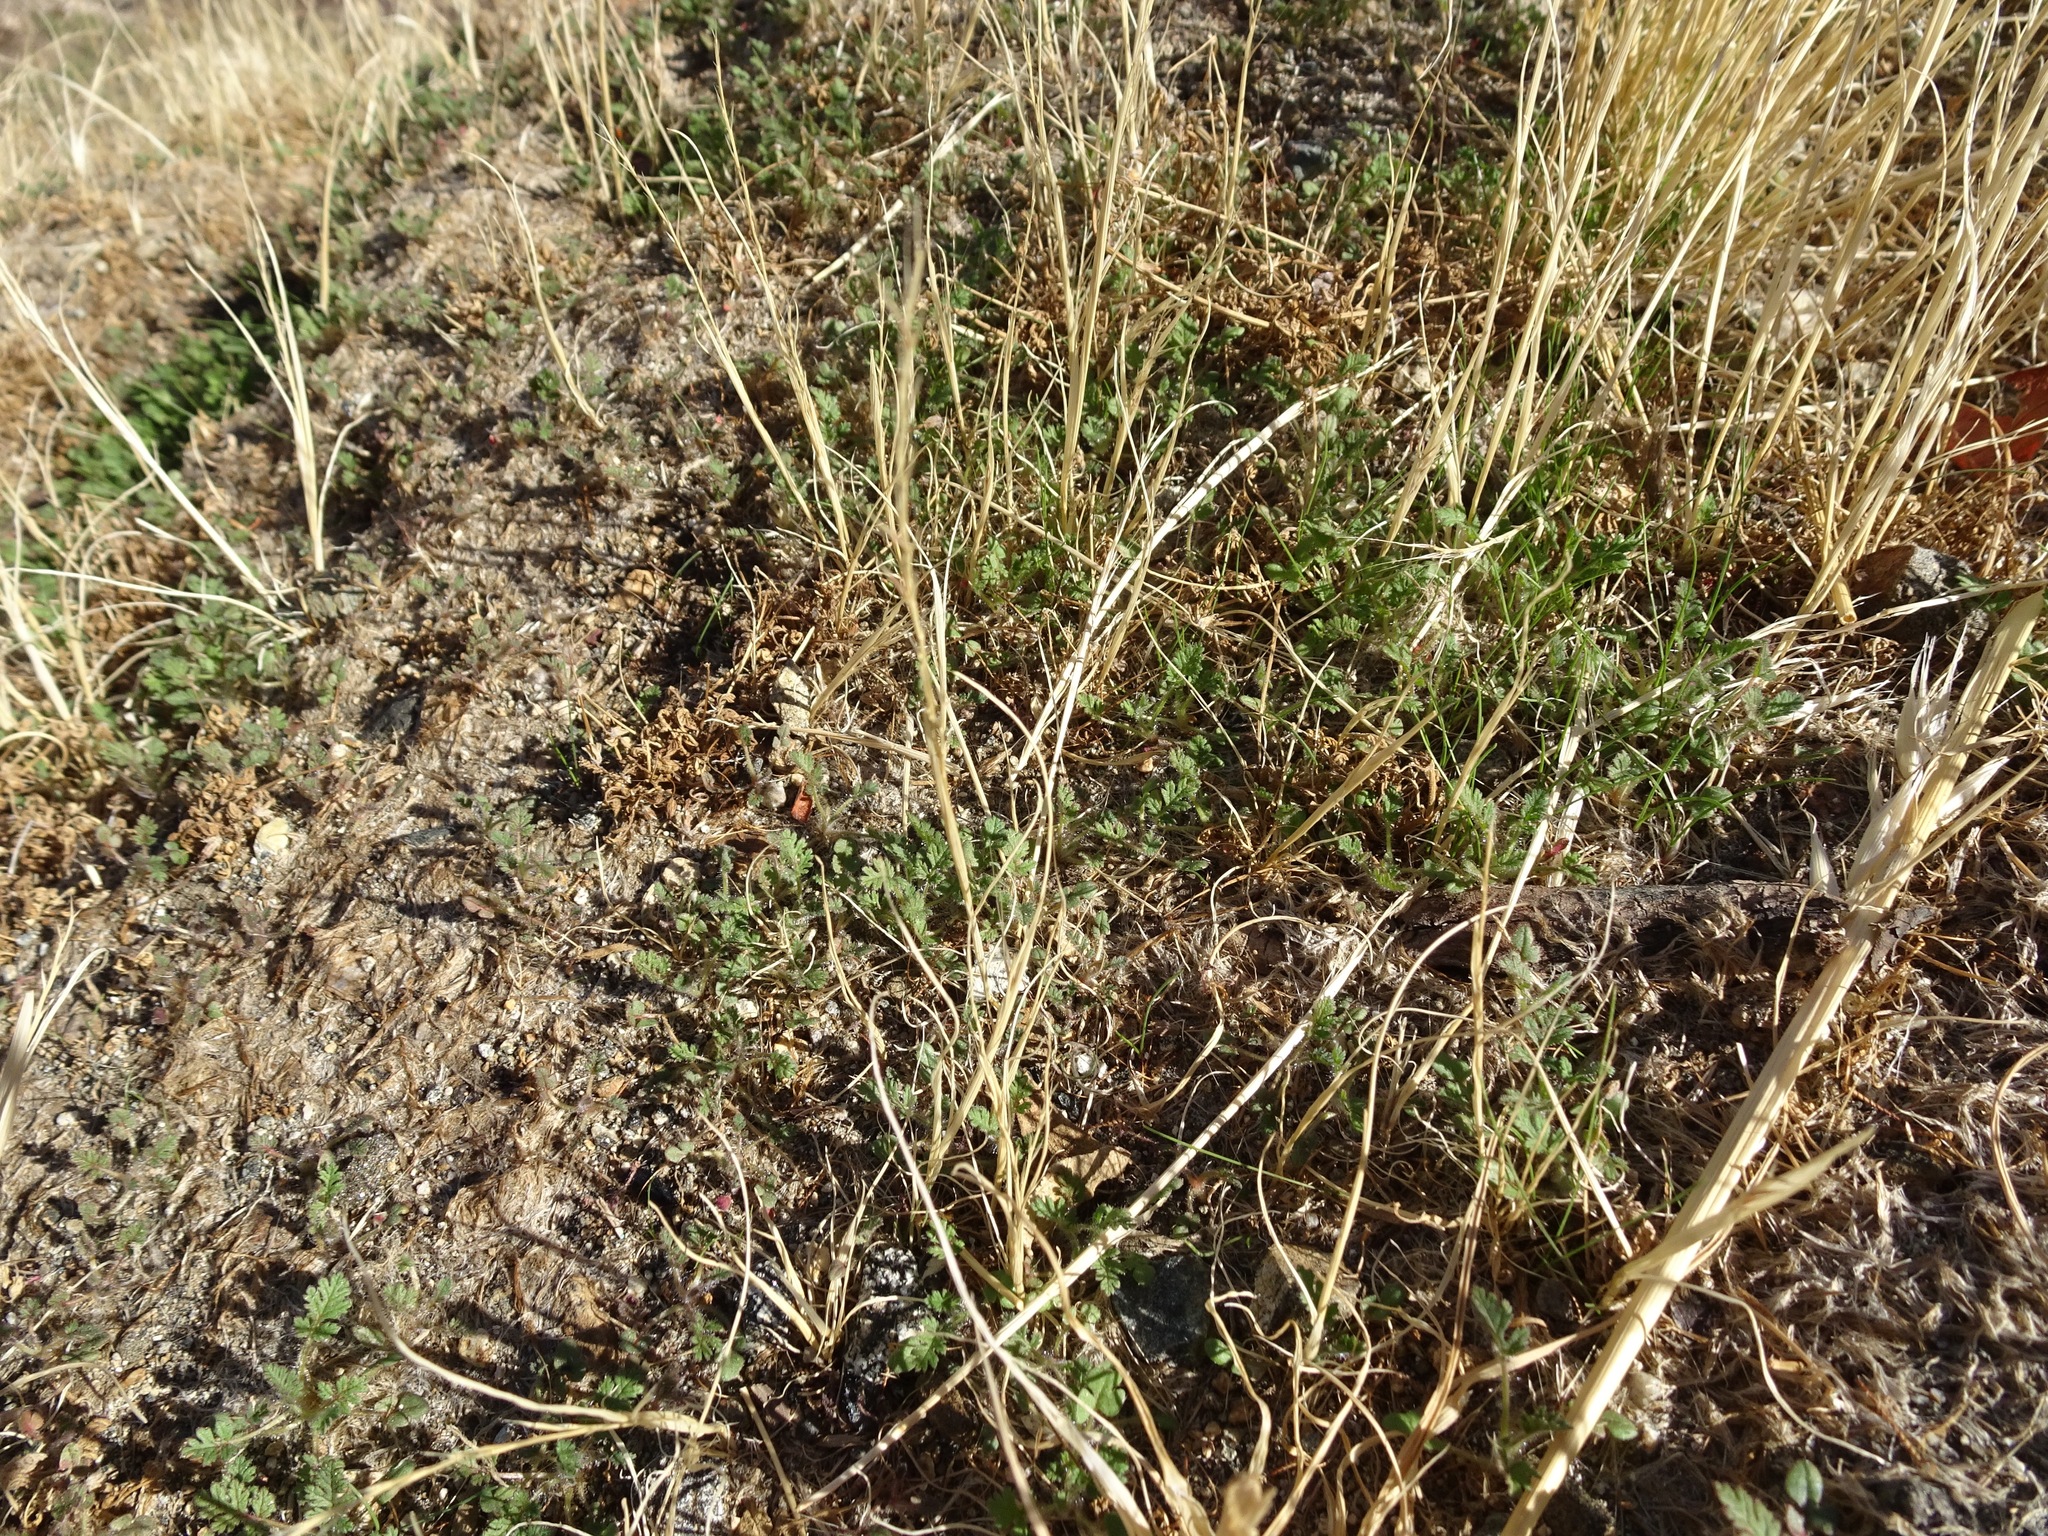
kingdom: Plantae
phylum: Tracheophyta
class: Magnoliopsida
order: Geraniales
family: Geraniaceae
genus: Erodium
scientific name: Erodium cicutarium
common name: Common stork's-bill
